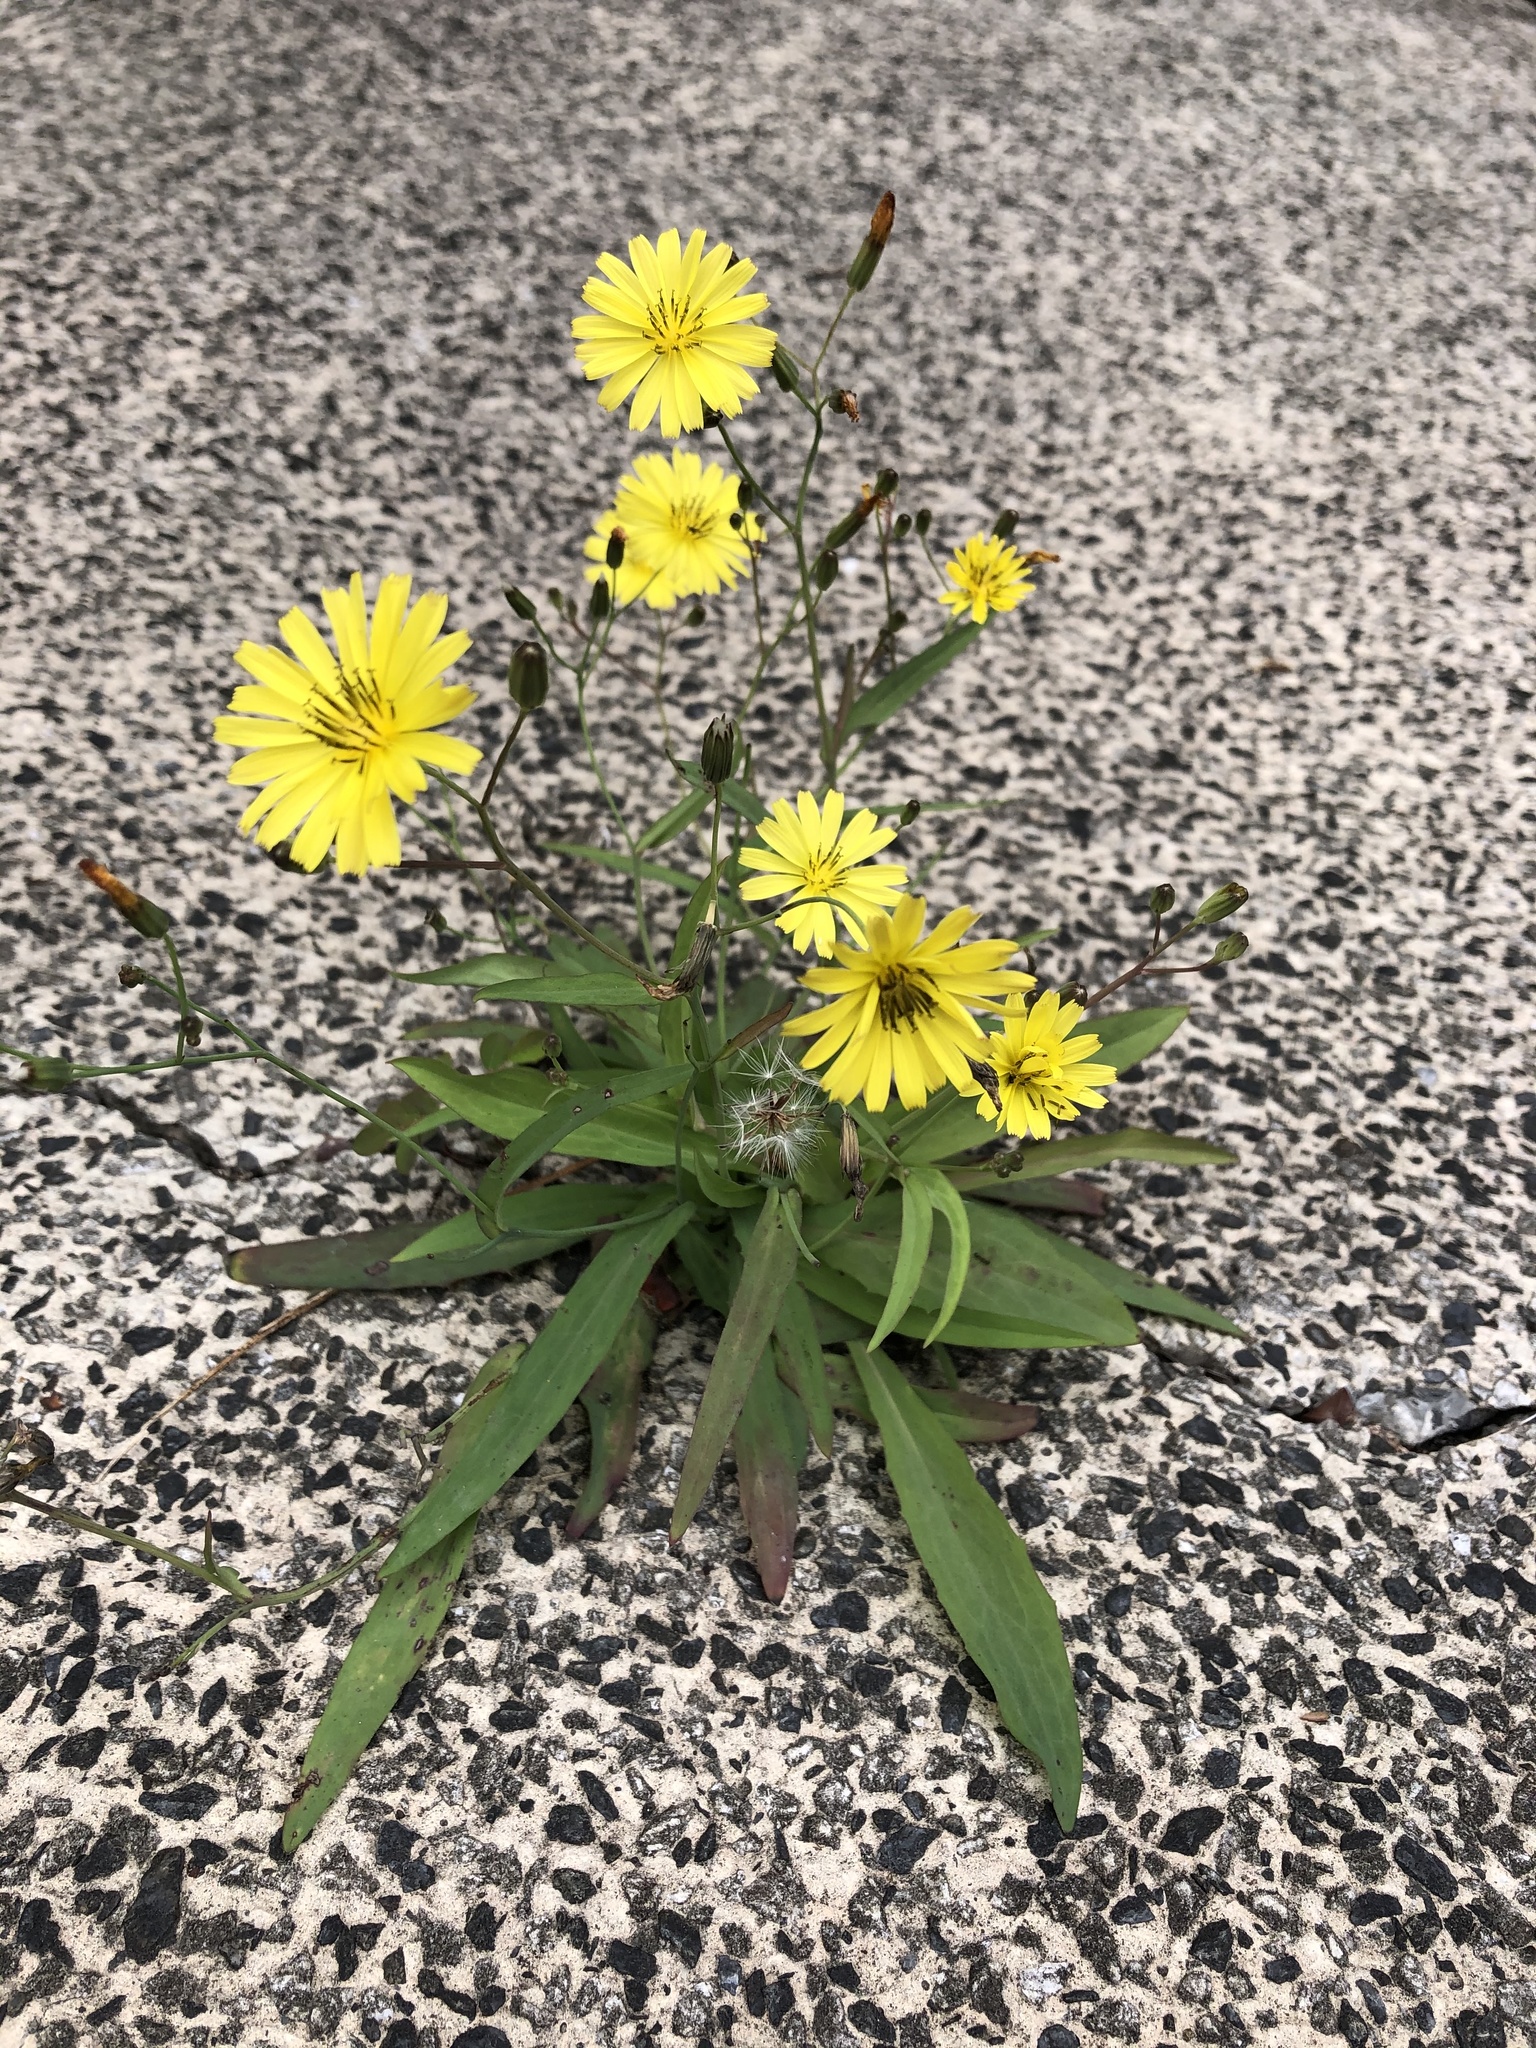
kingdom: Plantae
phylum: Tracheophyta
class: Magnoliopsida
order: Asterales
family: Asteraceae
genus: Ixeris
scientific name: Ixeris chinensis
